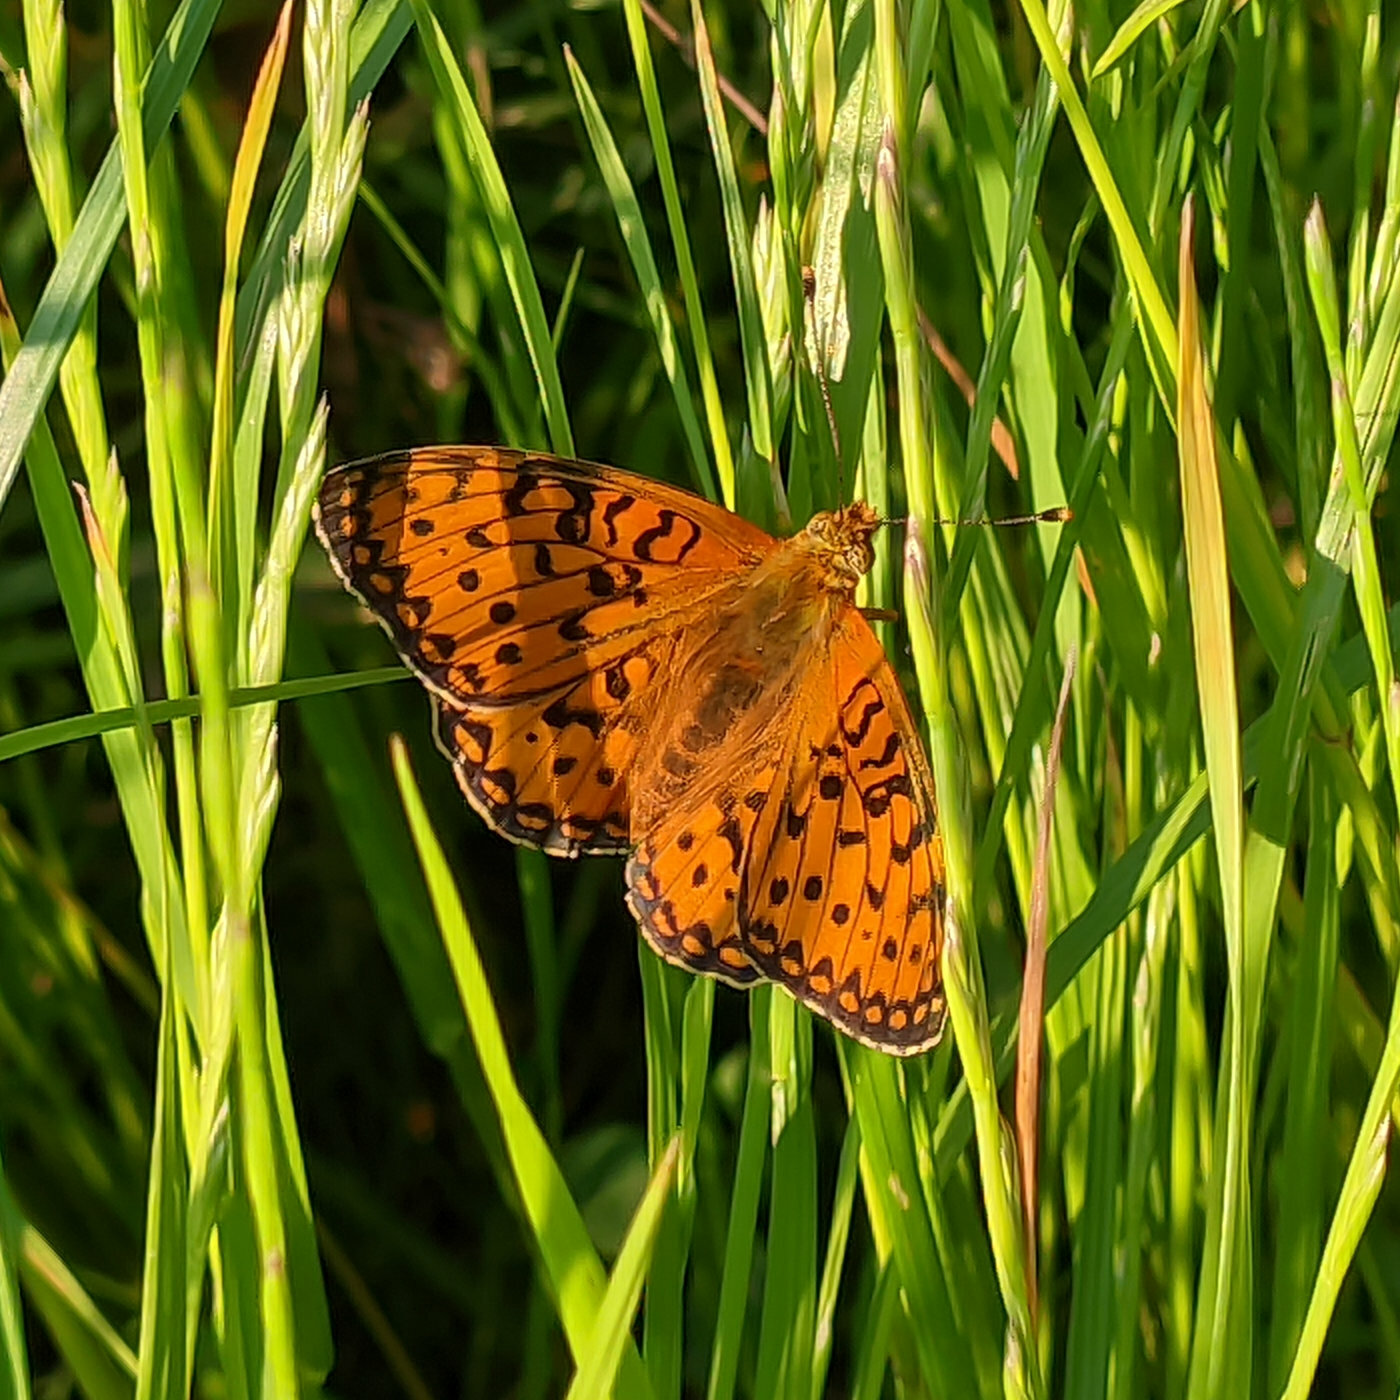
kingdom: Animalia
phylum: Arthropoda
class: Insecta
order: Lepidoptera
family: Nymphalidae
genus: Speyeria
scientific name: Speyeria aglaja
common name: Dark green fritillary
